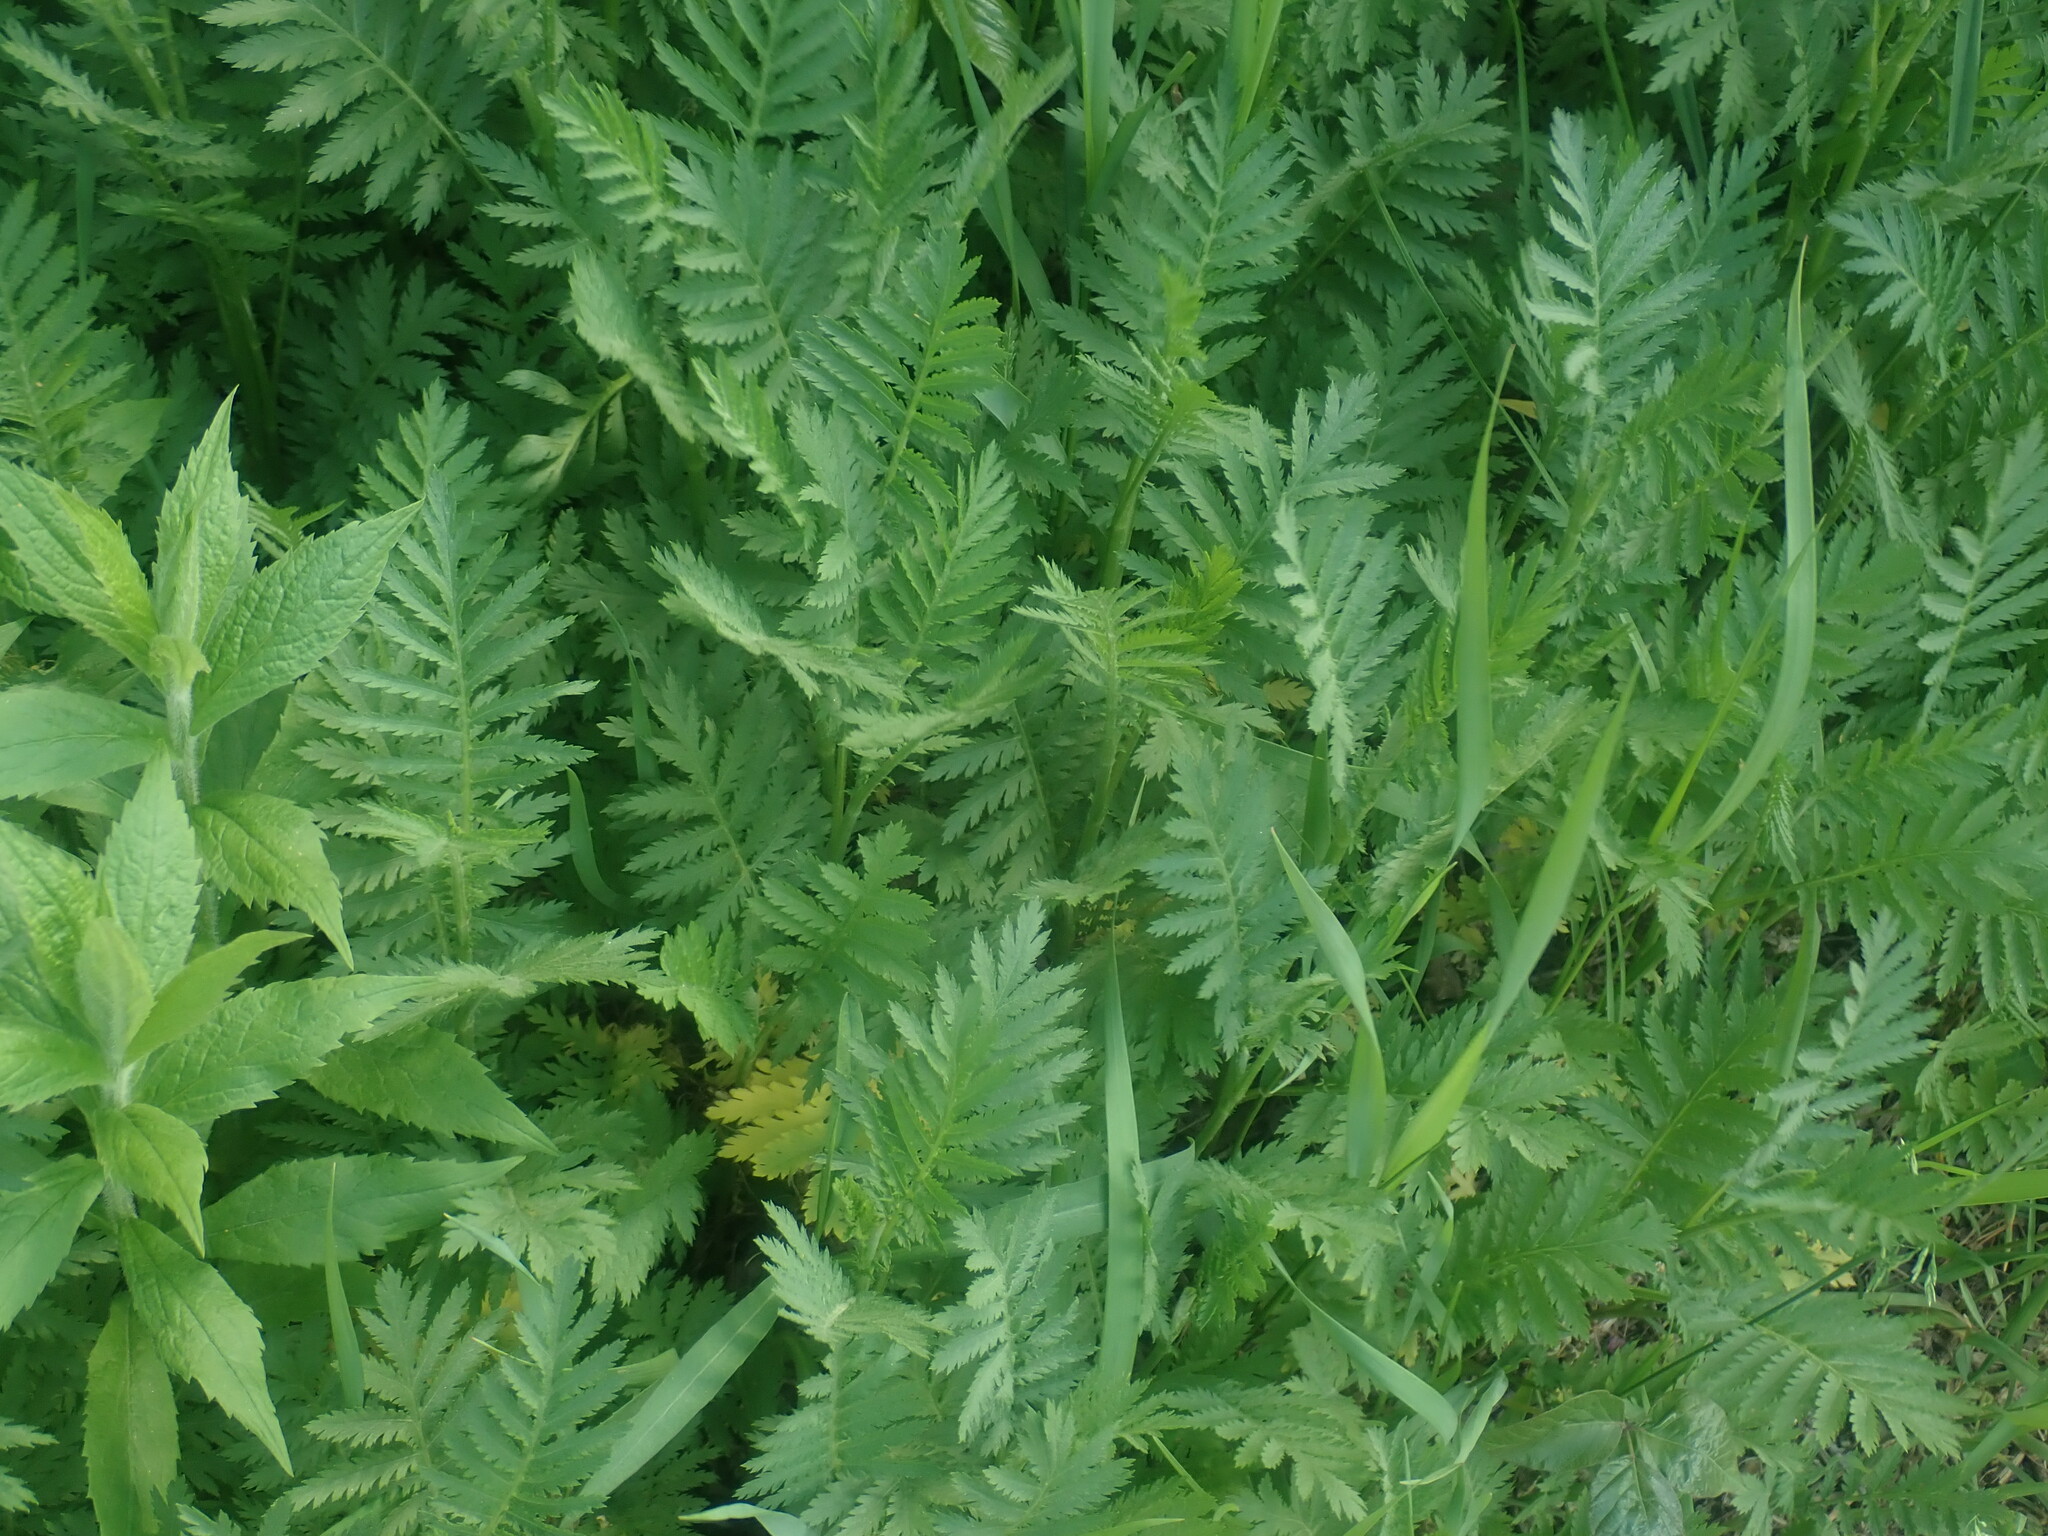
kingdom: Plantae
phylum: Tracheophyta
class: Magnoliopsida
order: Asterales
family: Asteraceae
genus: Tanacetum
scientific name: Tanacetum vulgare
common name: Common tansy
